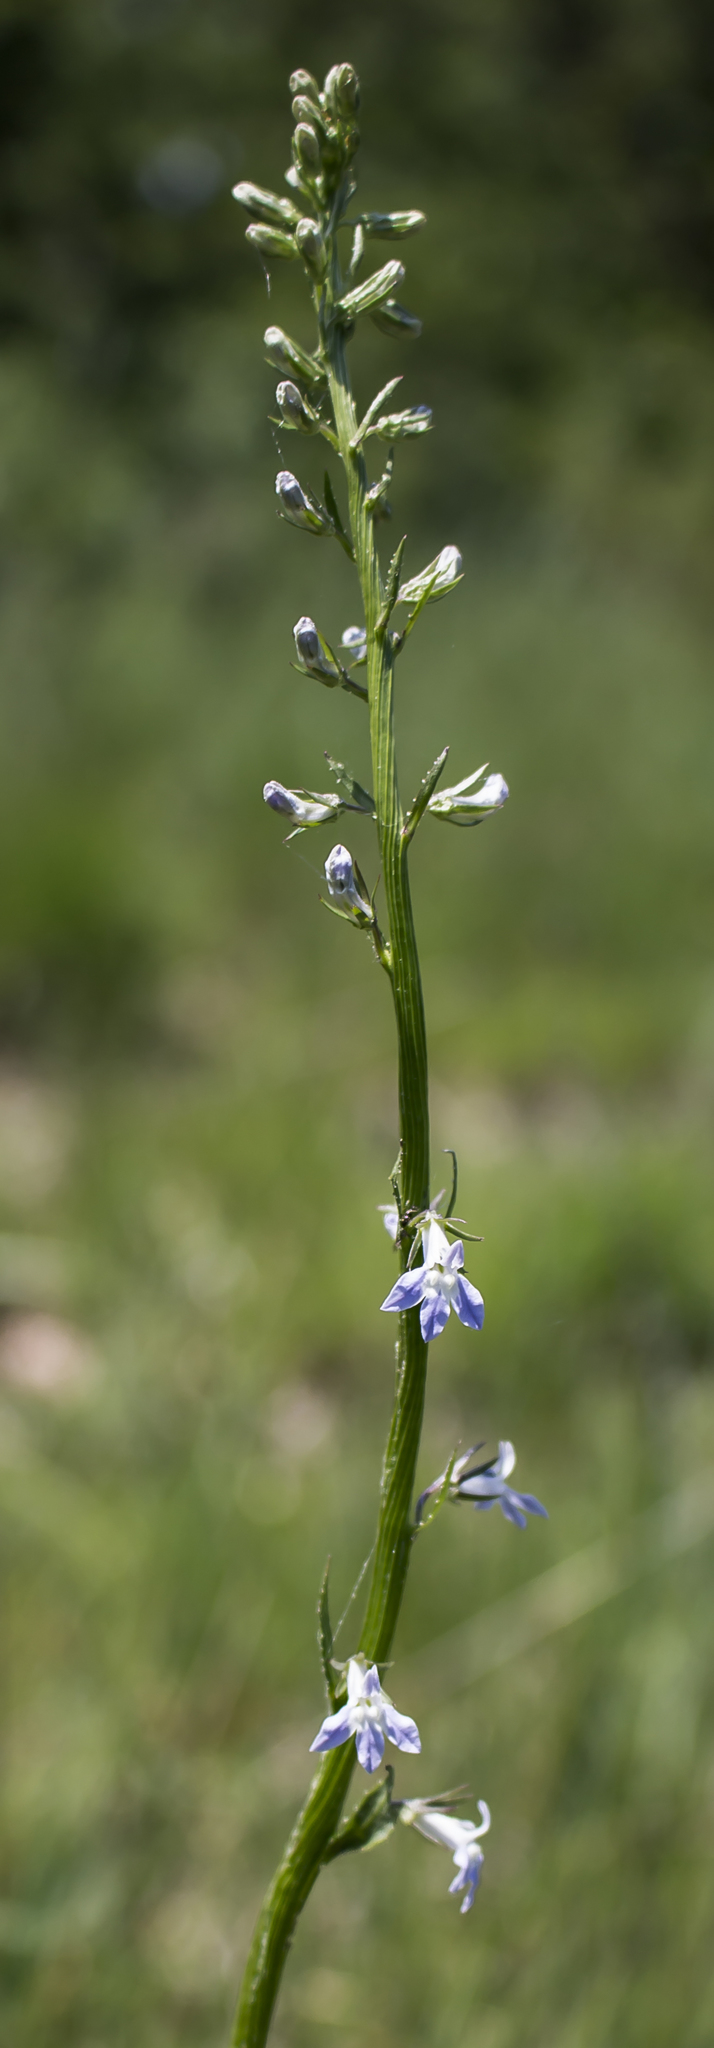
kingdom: Plantae
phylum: Tracheophyta
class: Magnoliopsida
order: Asterales
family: Campanulaceae
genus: Lobelia
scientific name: Lobelia spicata
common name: Pale-spike lobelia
